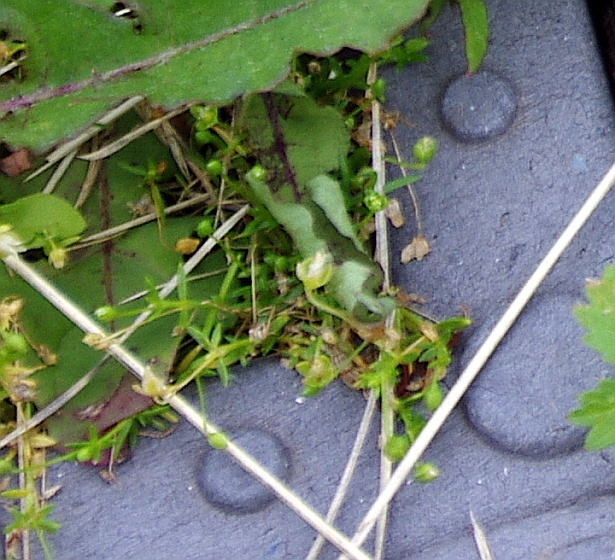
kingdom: Plantae
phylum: Tracheophyta
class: Magnoliopsida
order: Caryophyllales
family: Caryophyllaceae
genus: Sagina
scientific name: Sagina procumbens
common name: Procumbent pearlwort
